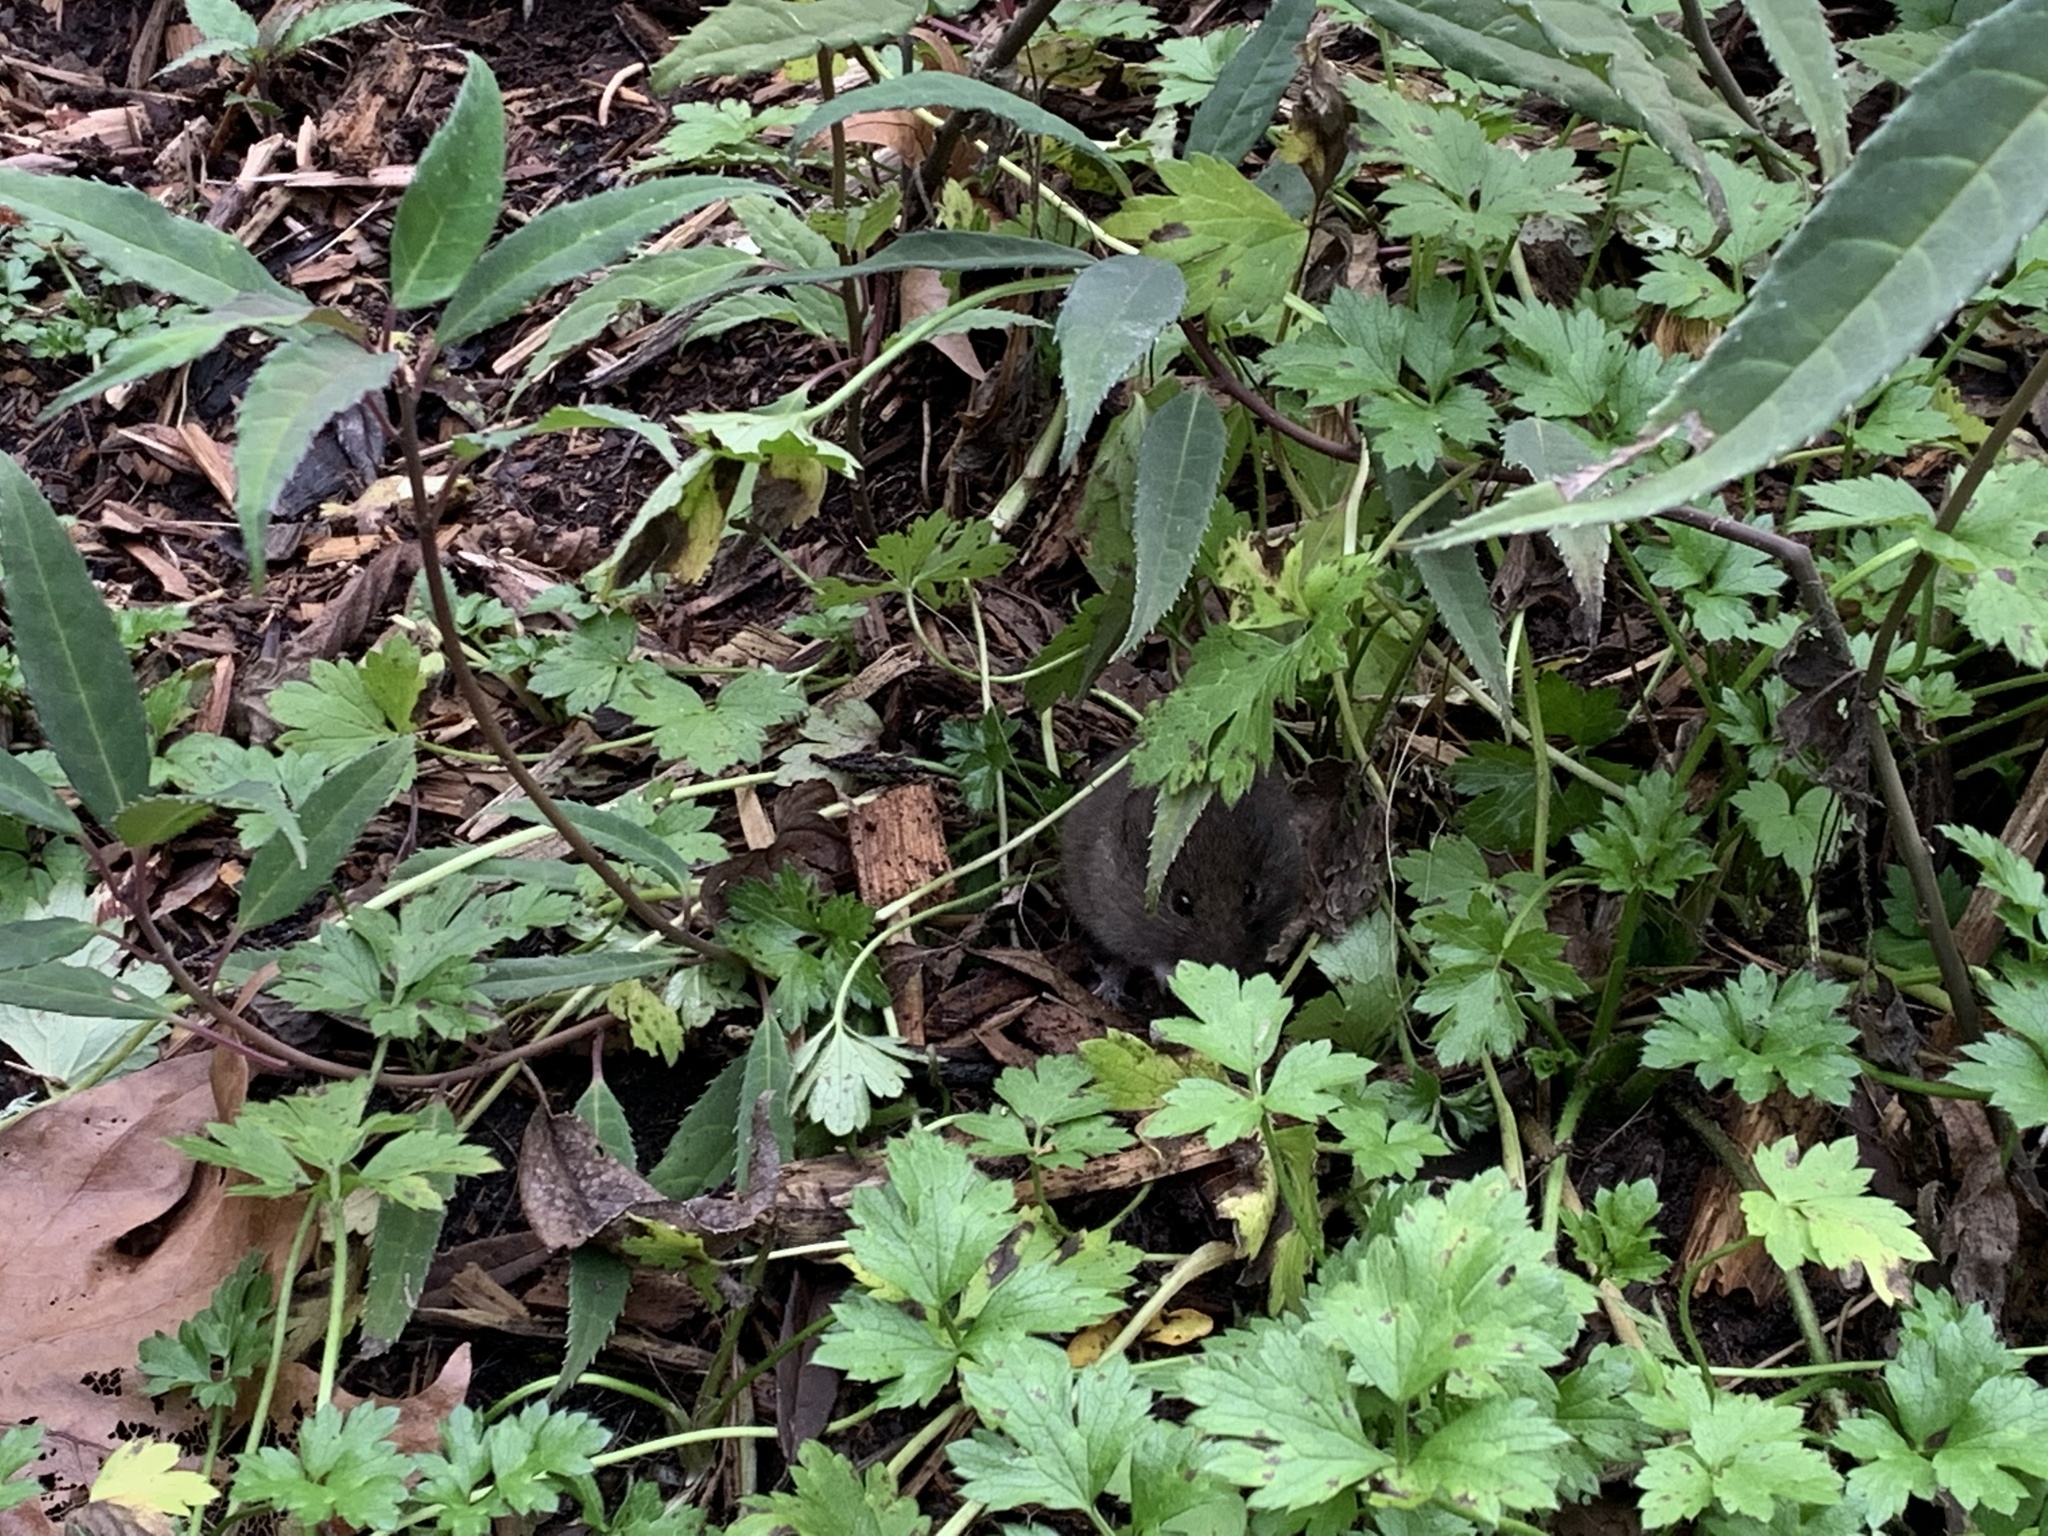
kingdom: Animalia
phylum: Chordata
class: Mammalia
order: Rodentia
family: Cricetidae
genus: Microtus
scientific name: Microtus californicus
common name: California vole
